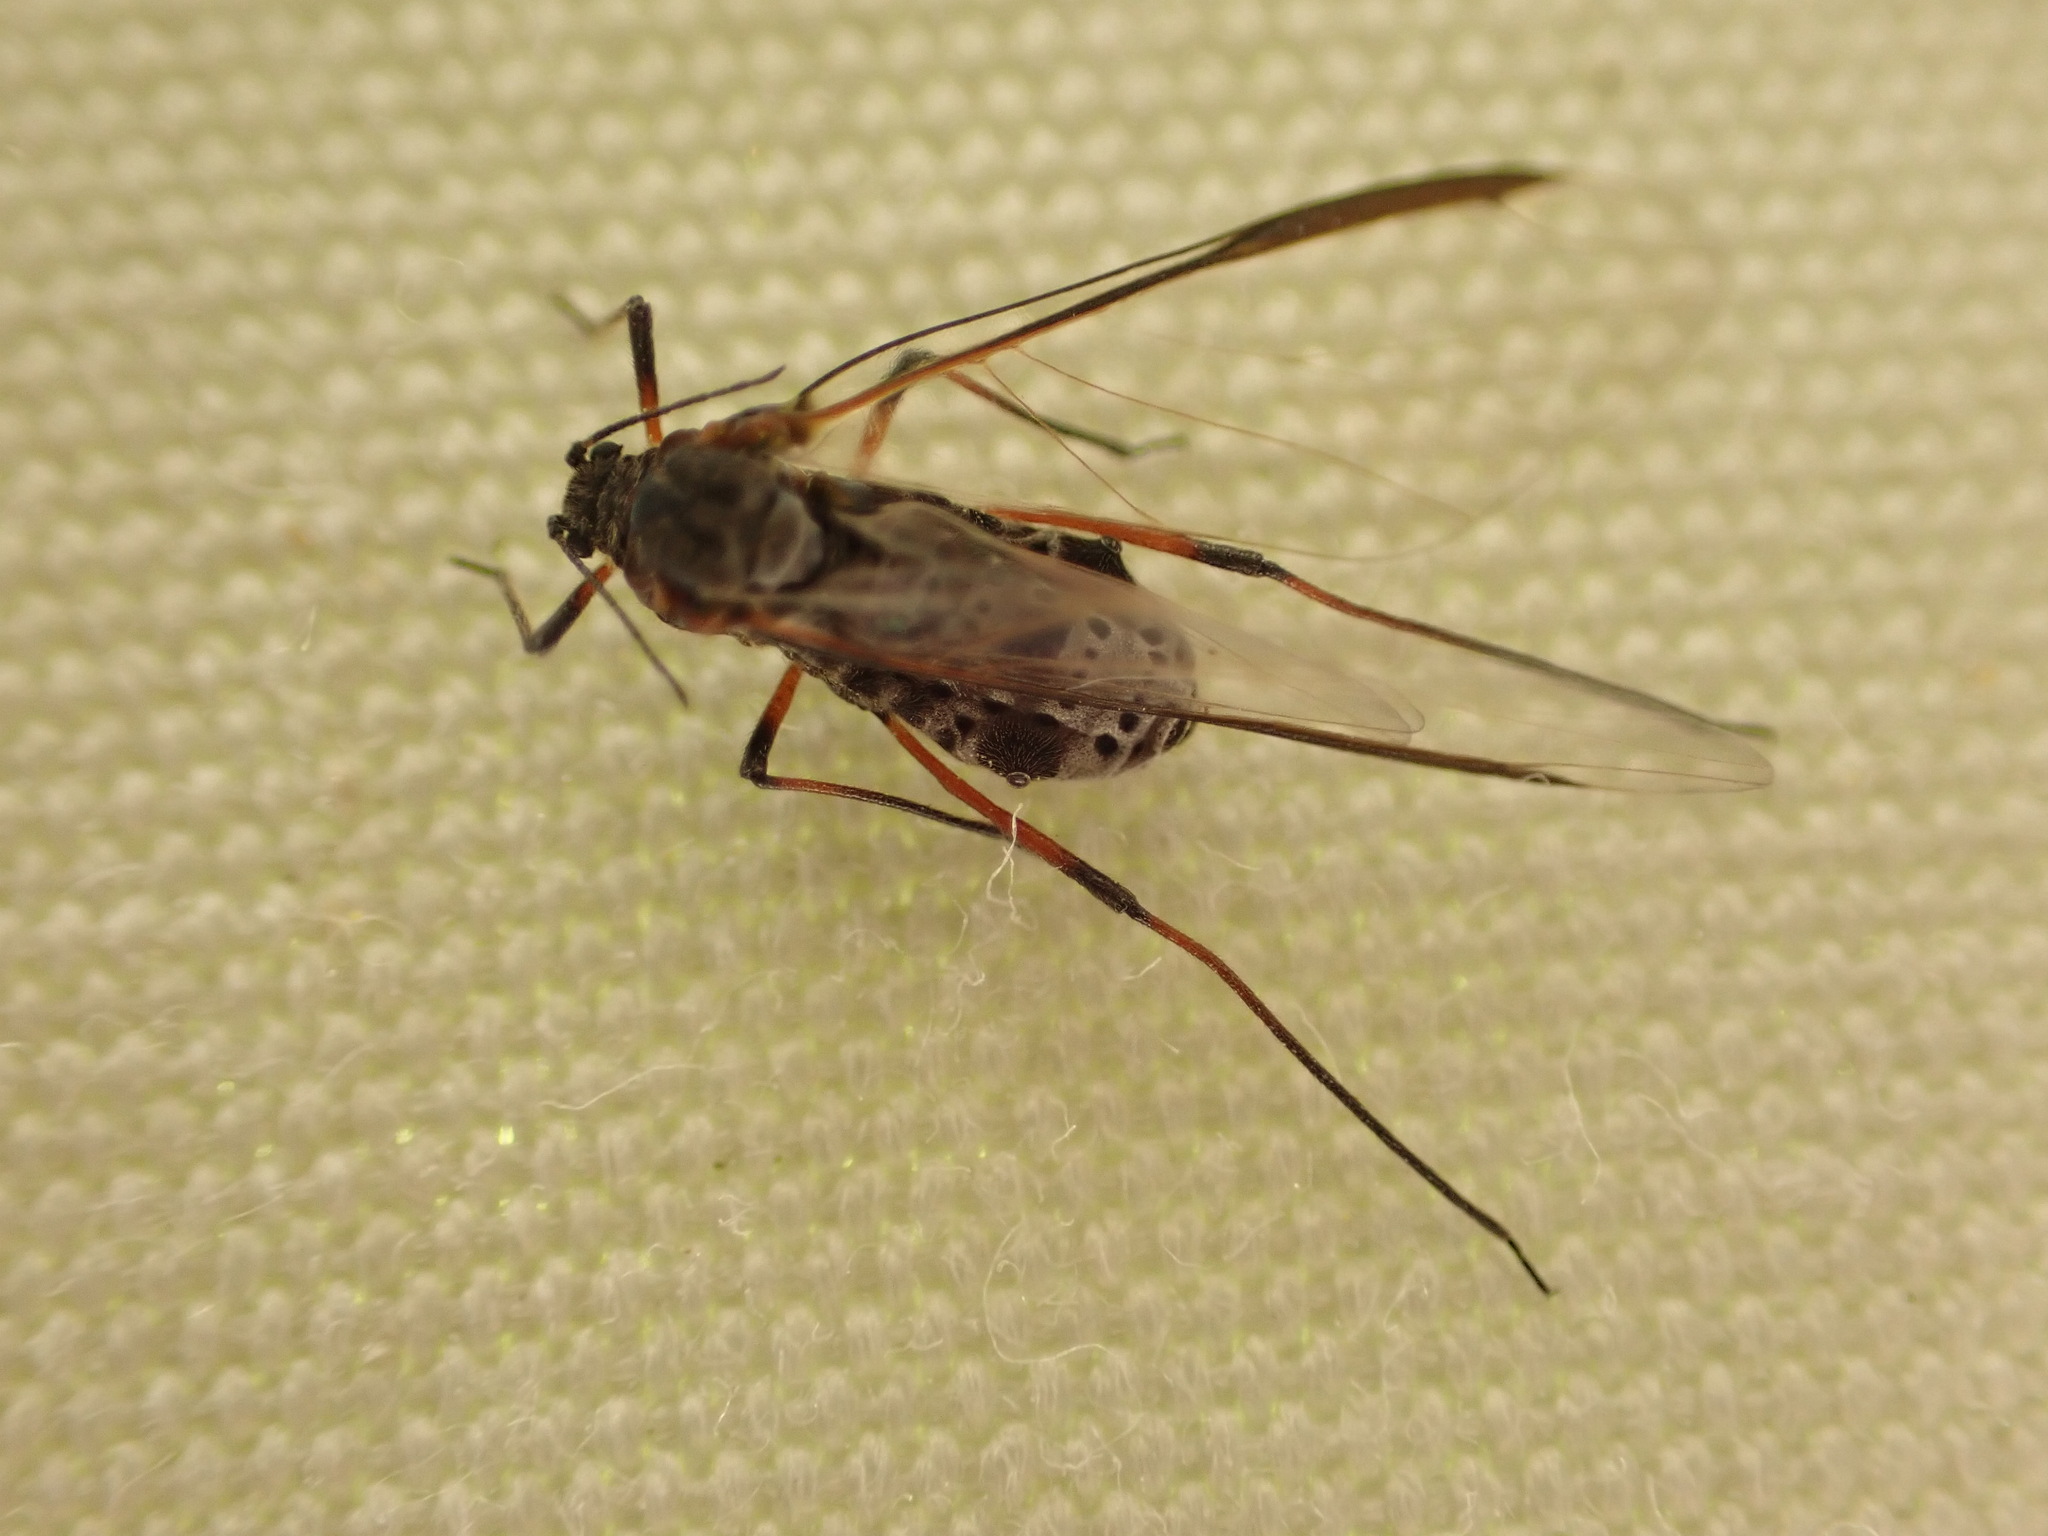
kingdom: Animalia
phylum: Arthropoda
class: Insecta
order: Hemiptera
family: Aphididae
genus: Tuberolachnus
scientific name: Tuberolachnus salignus
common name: Giant willow aphid
